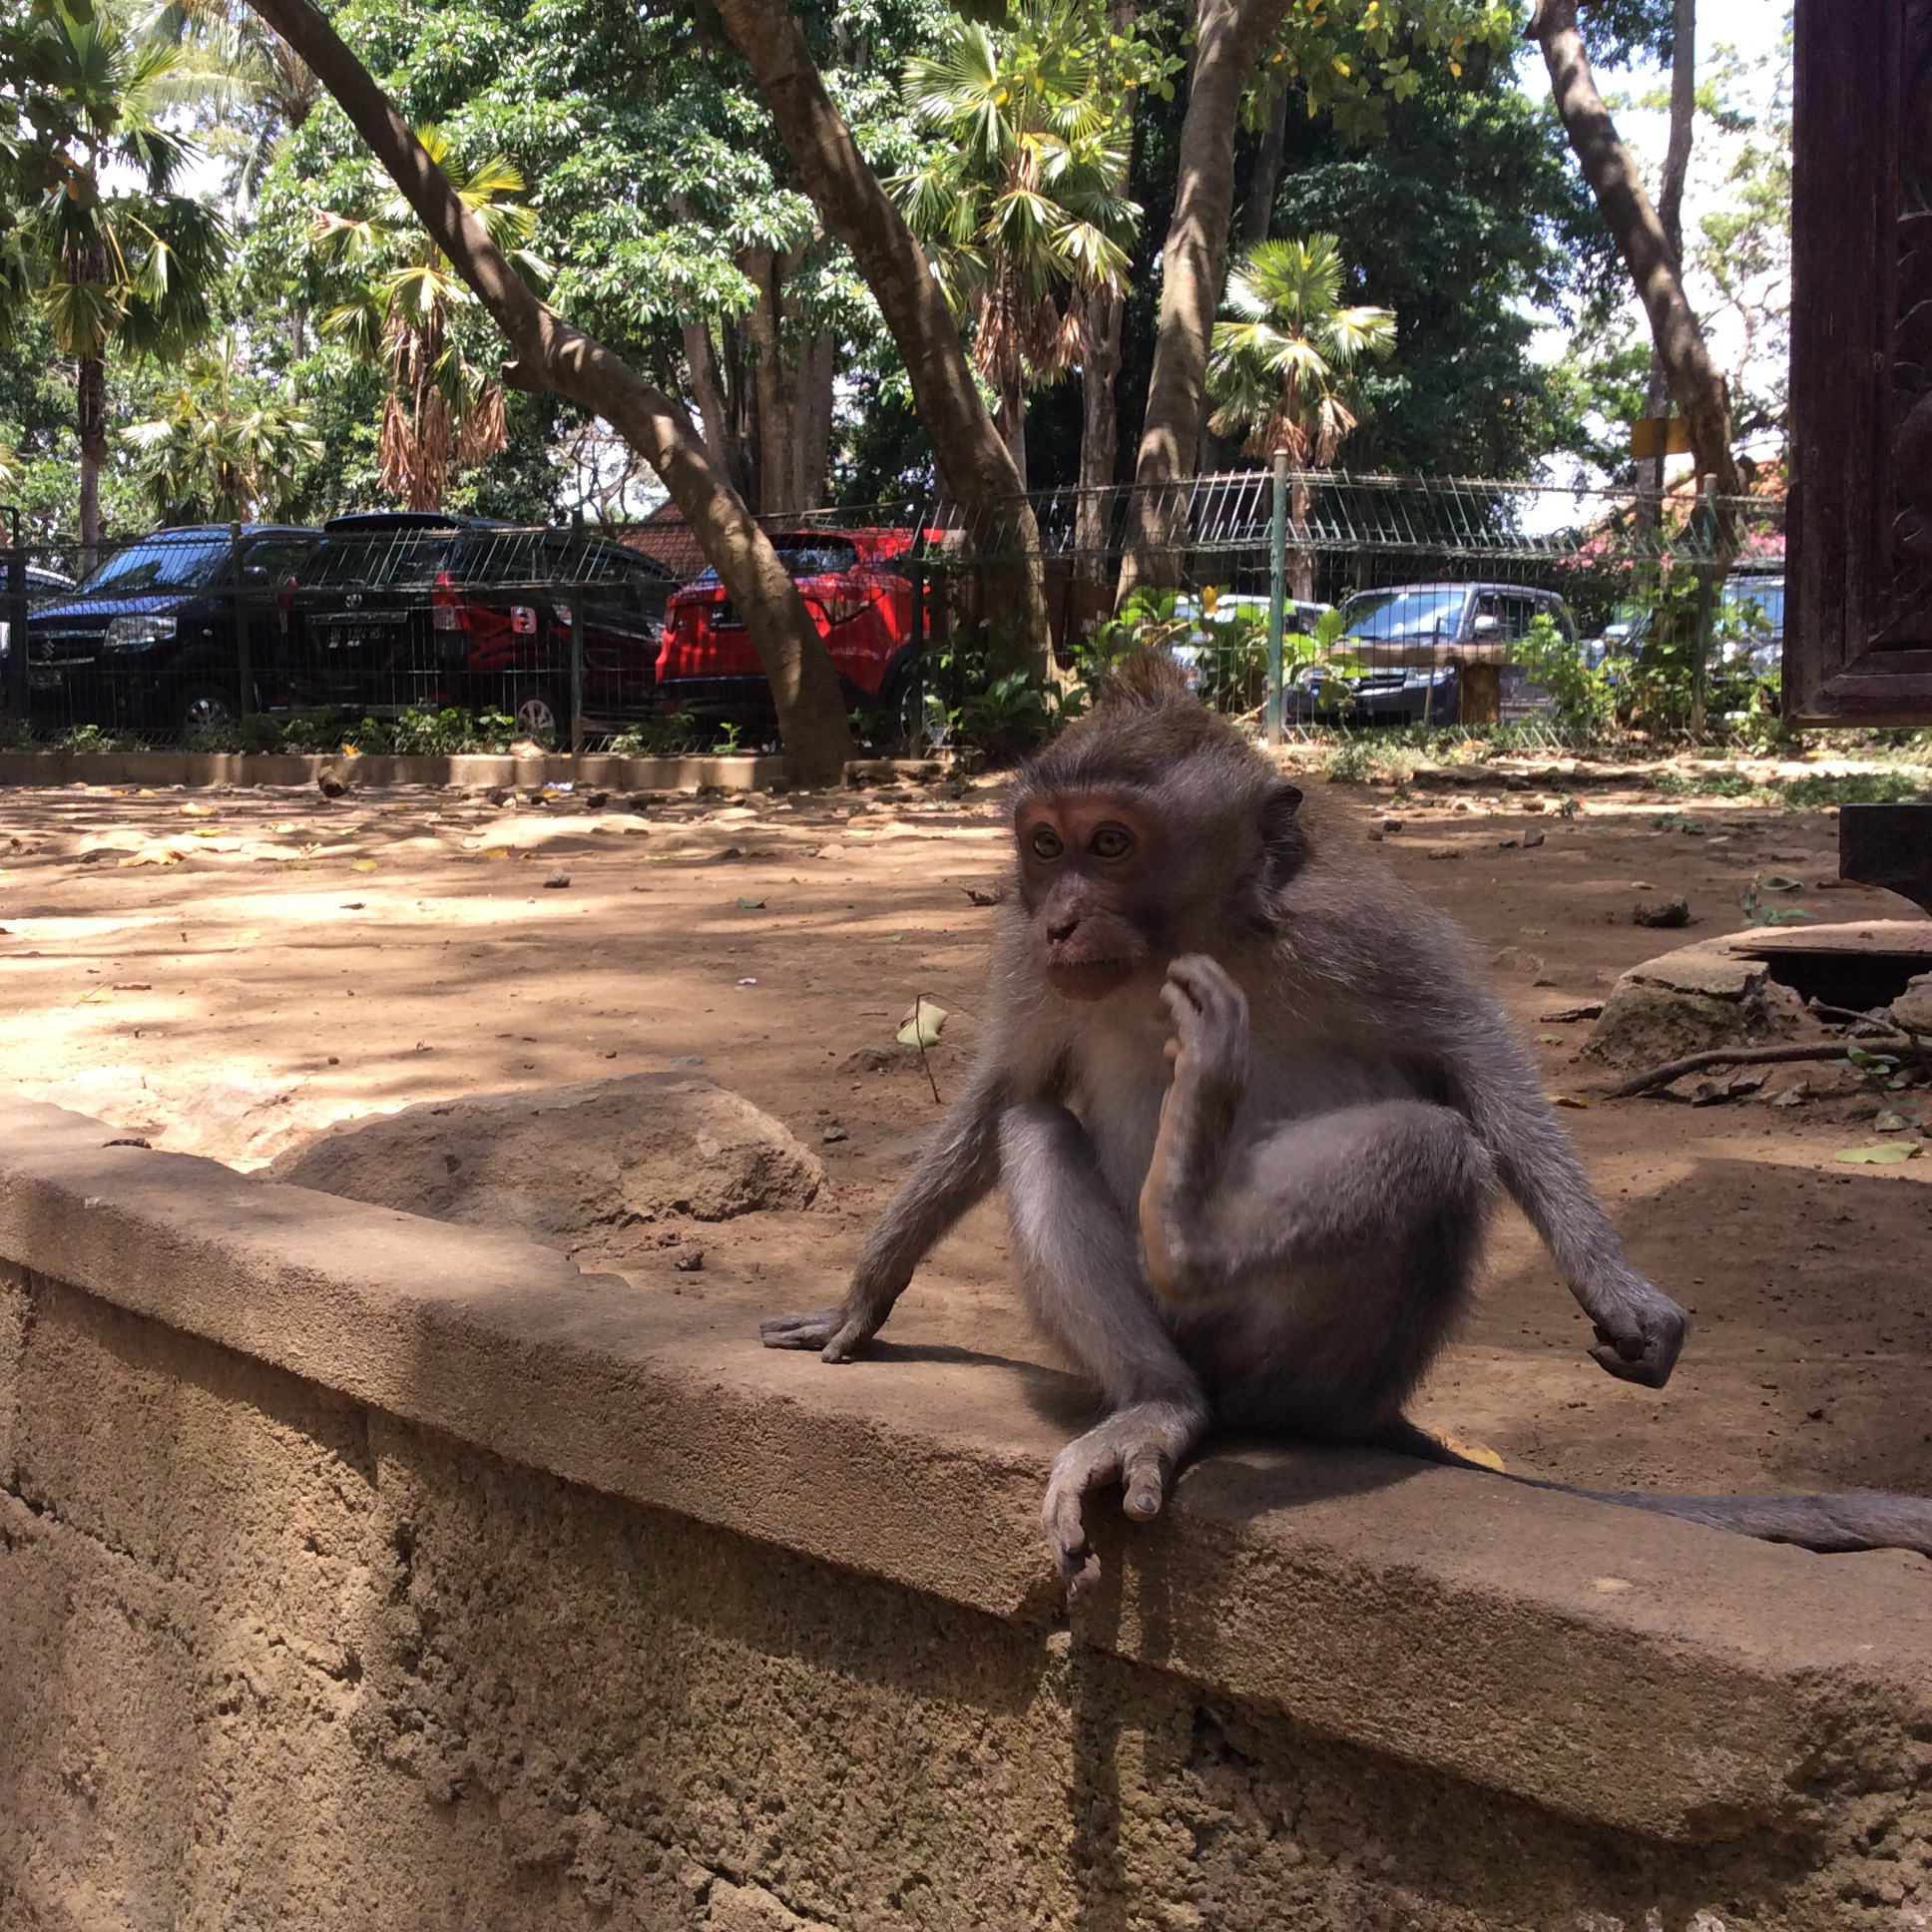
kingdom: Animalia
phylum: Chordata
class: Mammalia
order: Primates
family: Cercopithecidae
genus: Macaca
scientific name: Macaca fascicularis
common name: Crab-eating macaque
